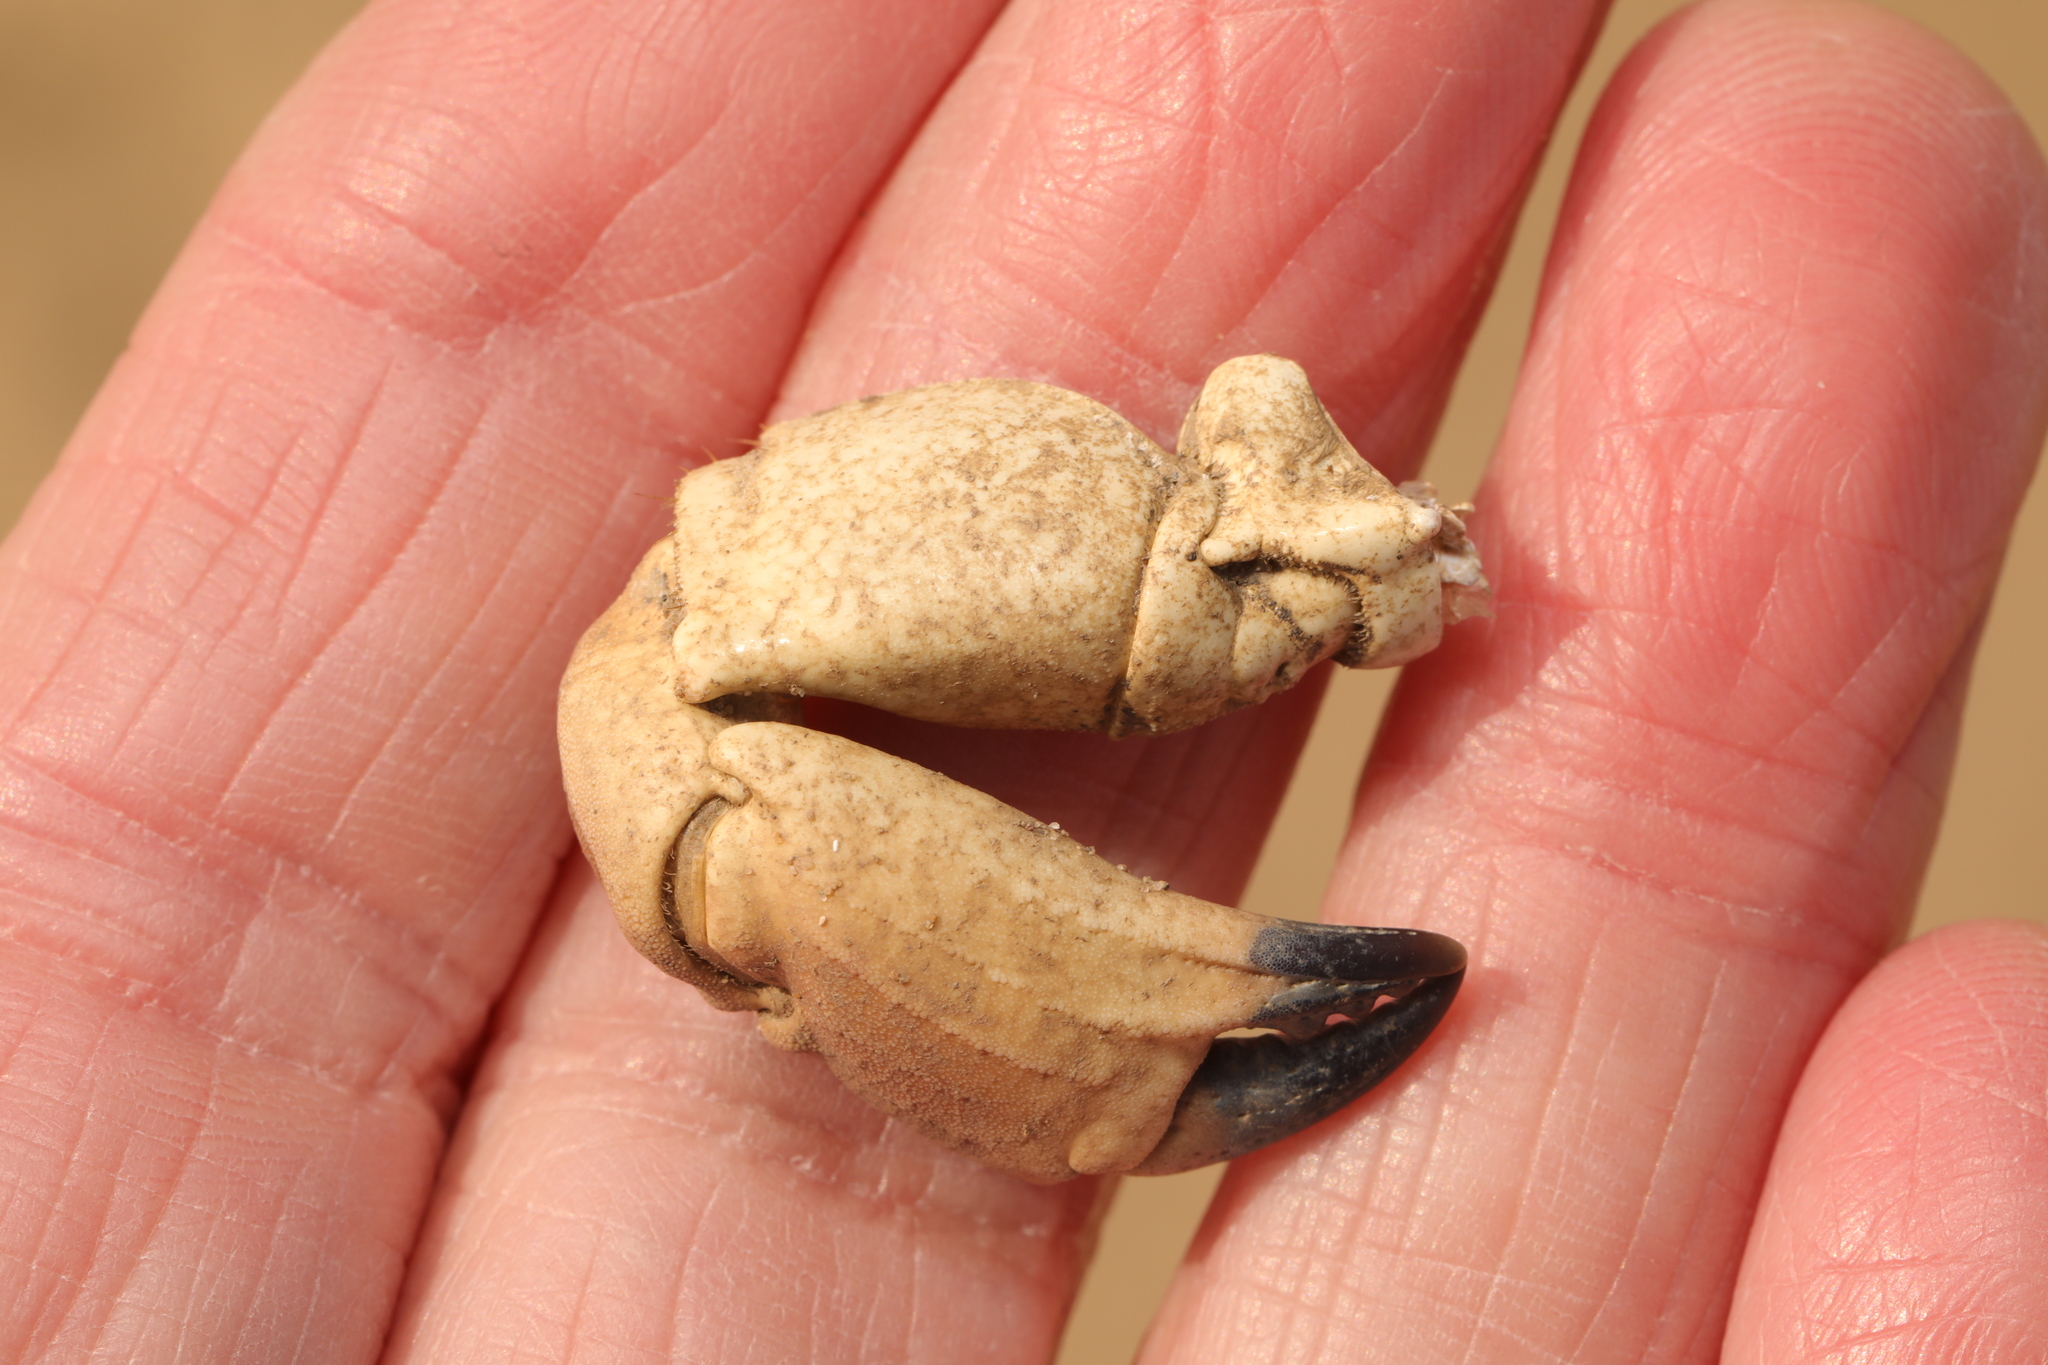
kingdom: Animalia
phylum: Arthropoda
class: Malacostraca
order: Decapoda
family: Cancridae
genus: Cancer
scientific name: Cancer pagurus
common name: Edible crab
